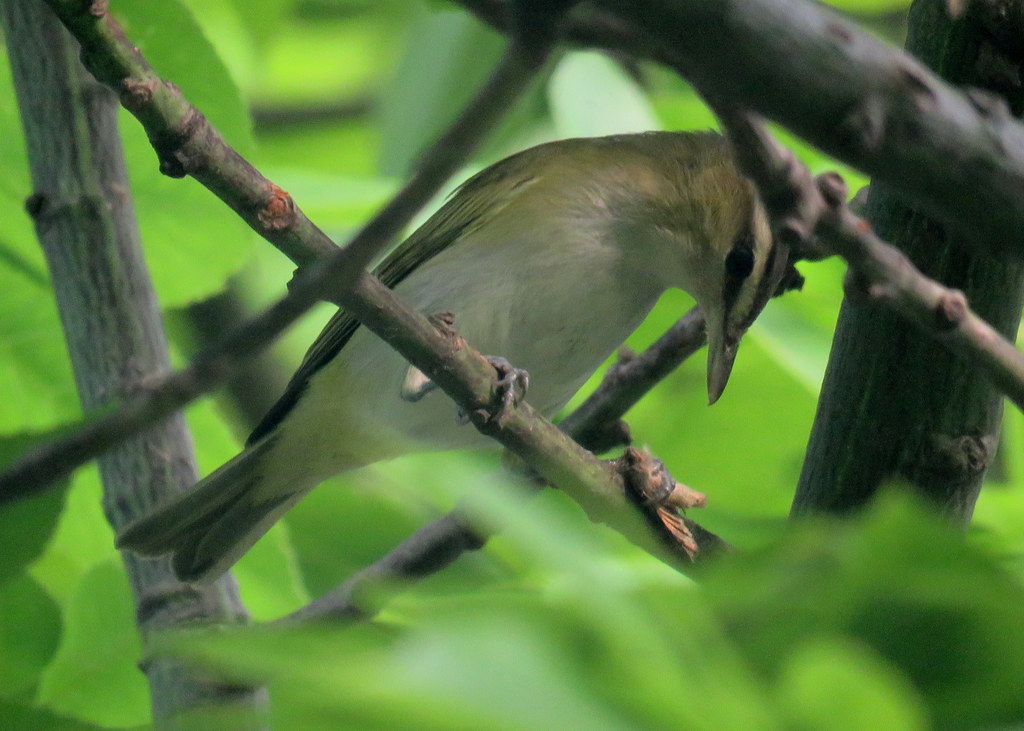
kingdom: Animalia
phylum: Chordata
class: Aves
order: Passeriformes
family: Vireonidae
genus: Vireo
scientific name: Vireo olivaceus
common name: Red-eyed vireo
